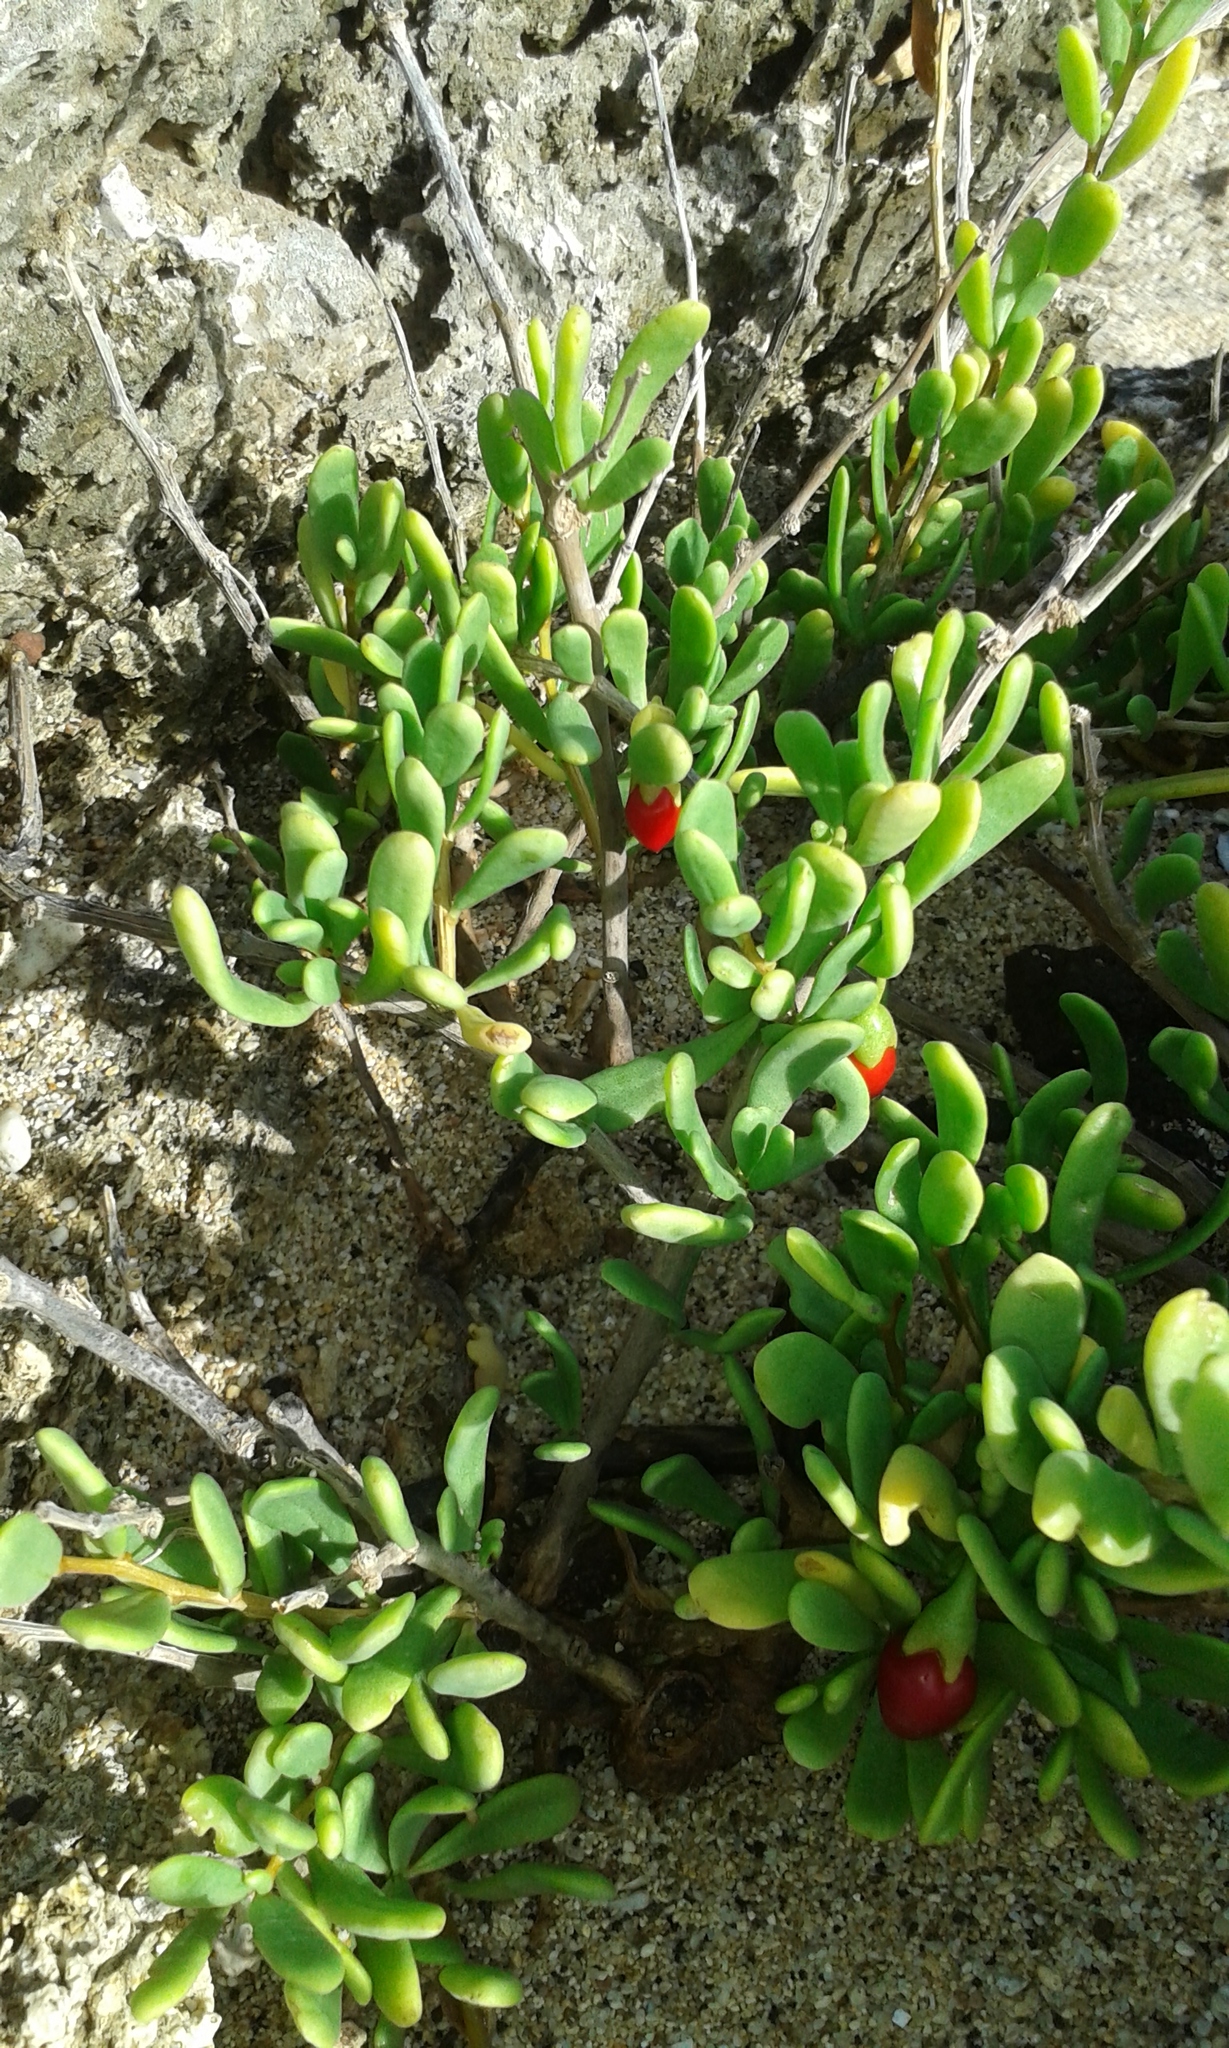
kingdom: Plantae
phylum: Tracheophyta
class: Magnoliopsida
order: Solanales
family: Solanaceae
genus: Lycium
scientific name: Lycium sandwicense
